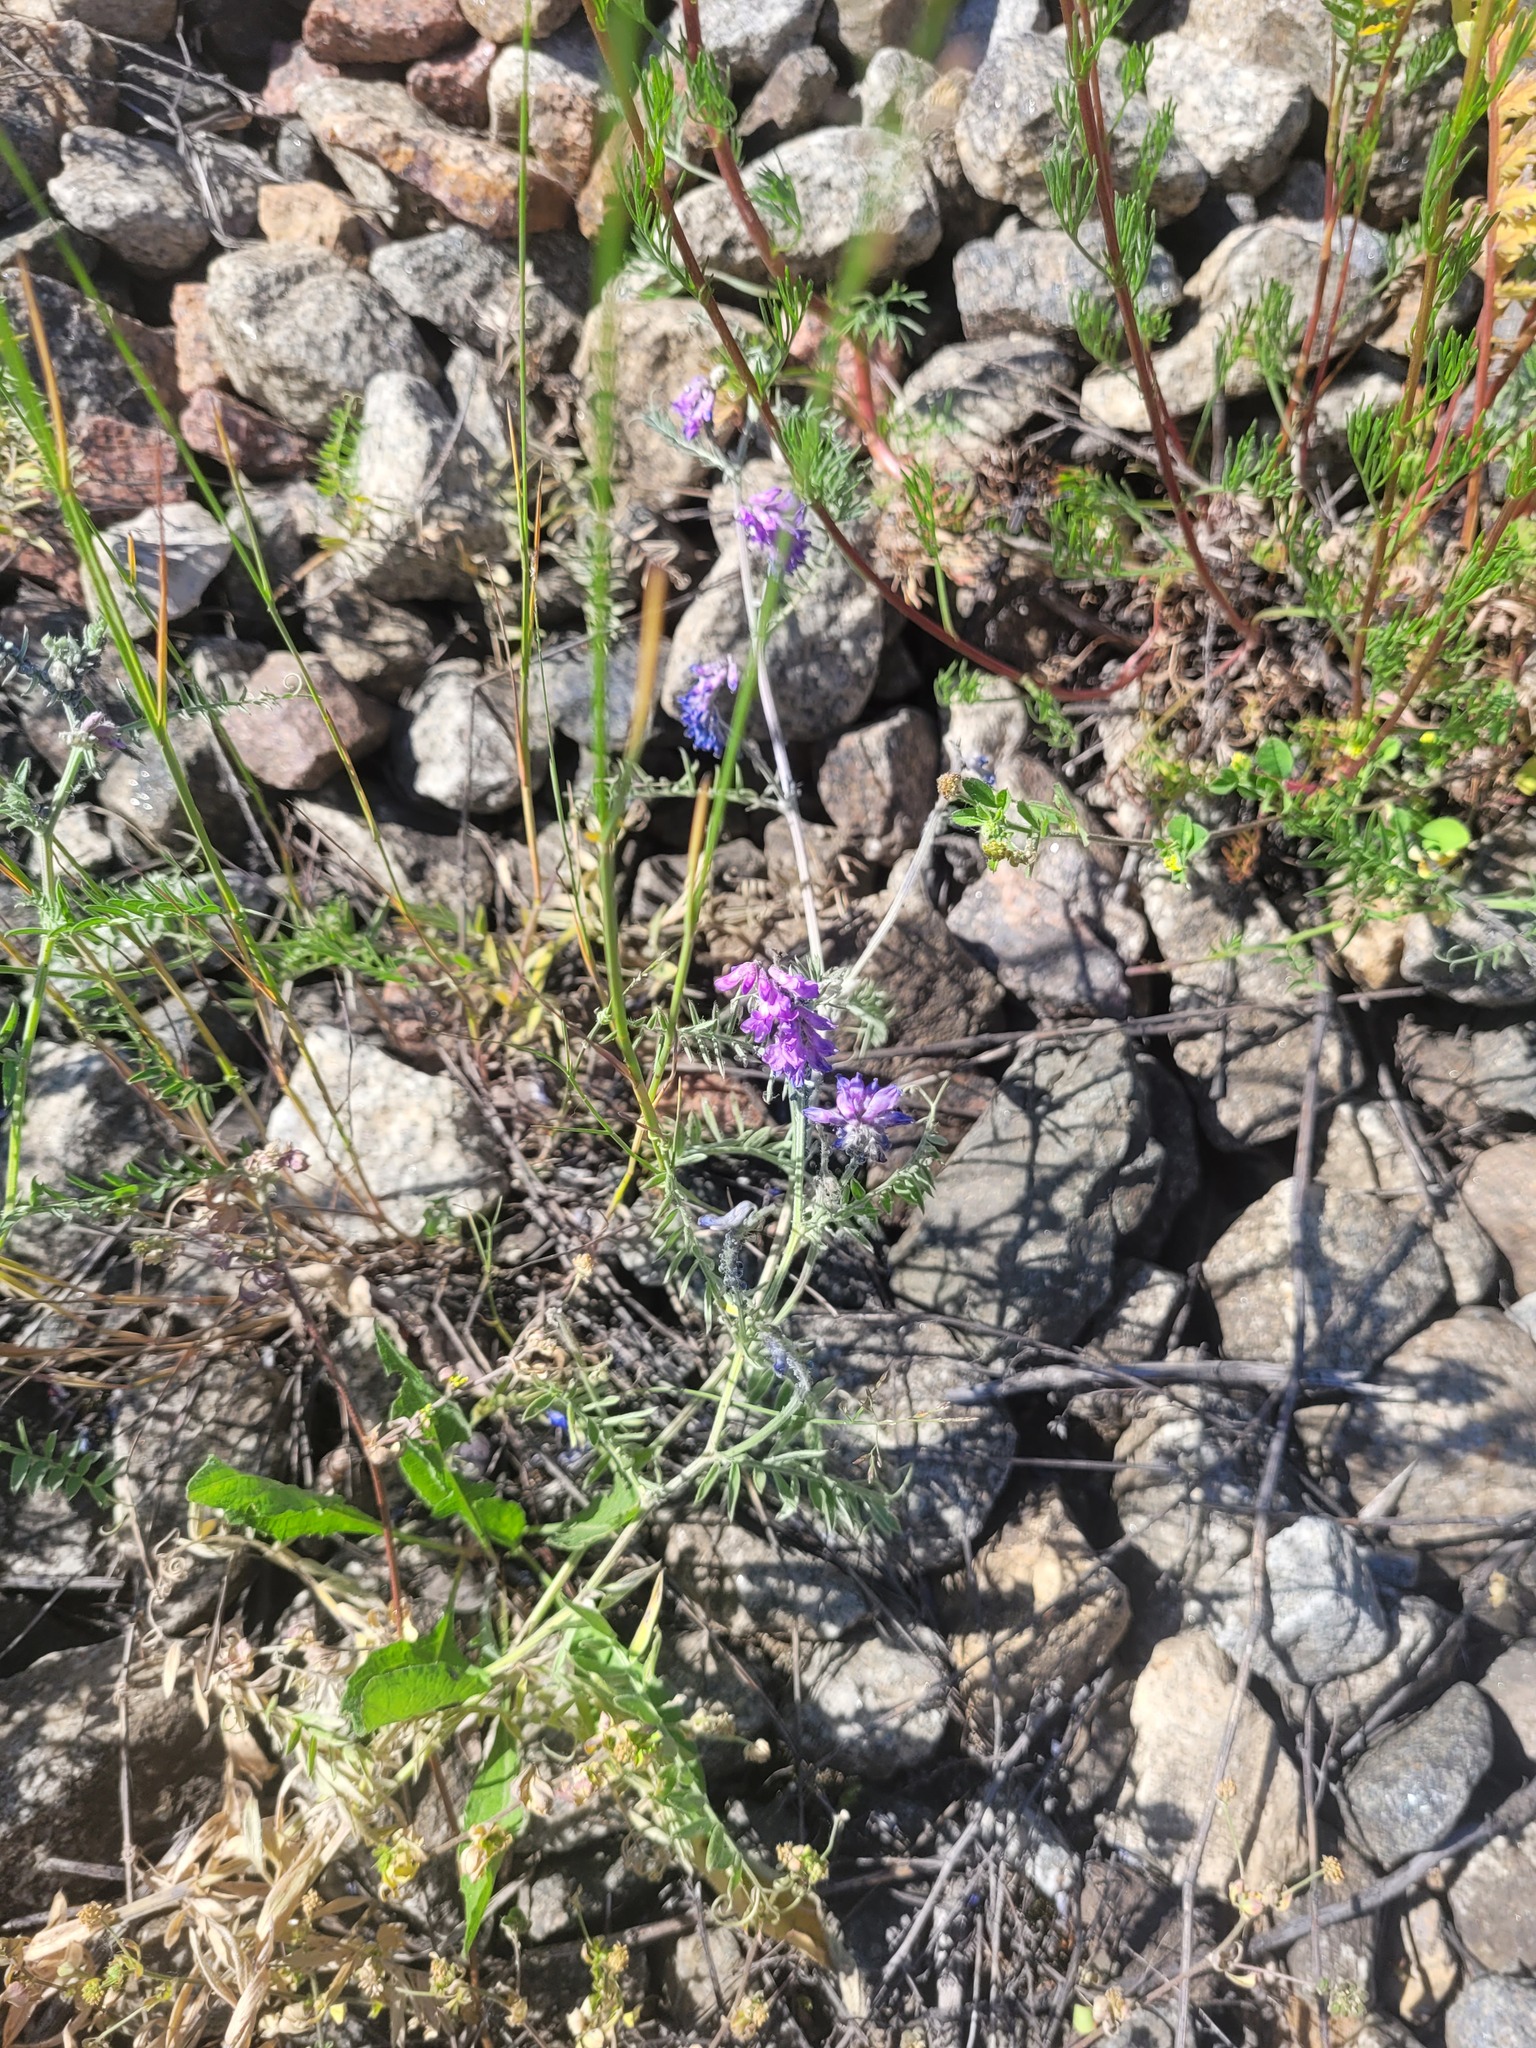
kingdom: Plantae
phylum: Tracheophyta
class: Magnoliopsida
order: Fabales
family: Fabaceae
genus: Vicia
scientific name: Vicia cracca
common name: Bird vetch
